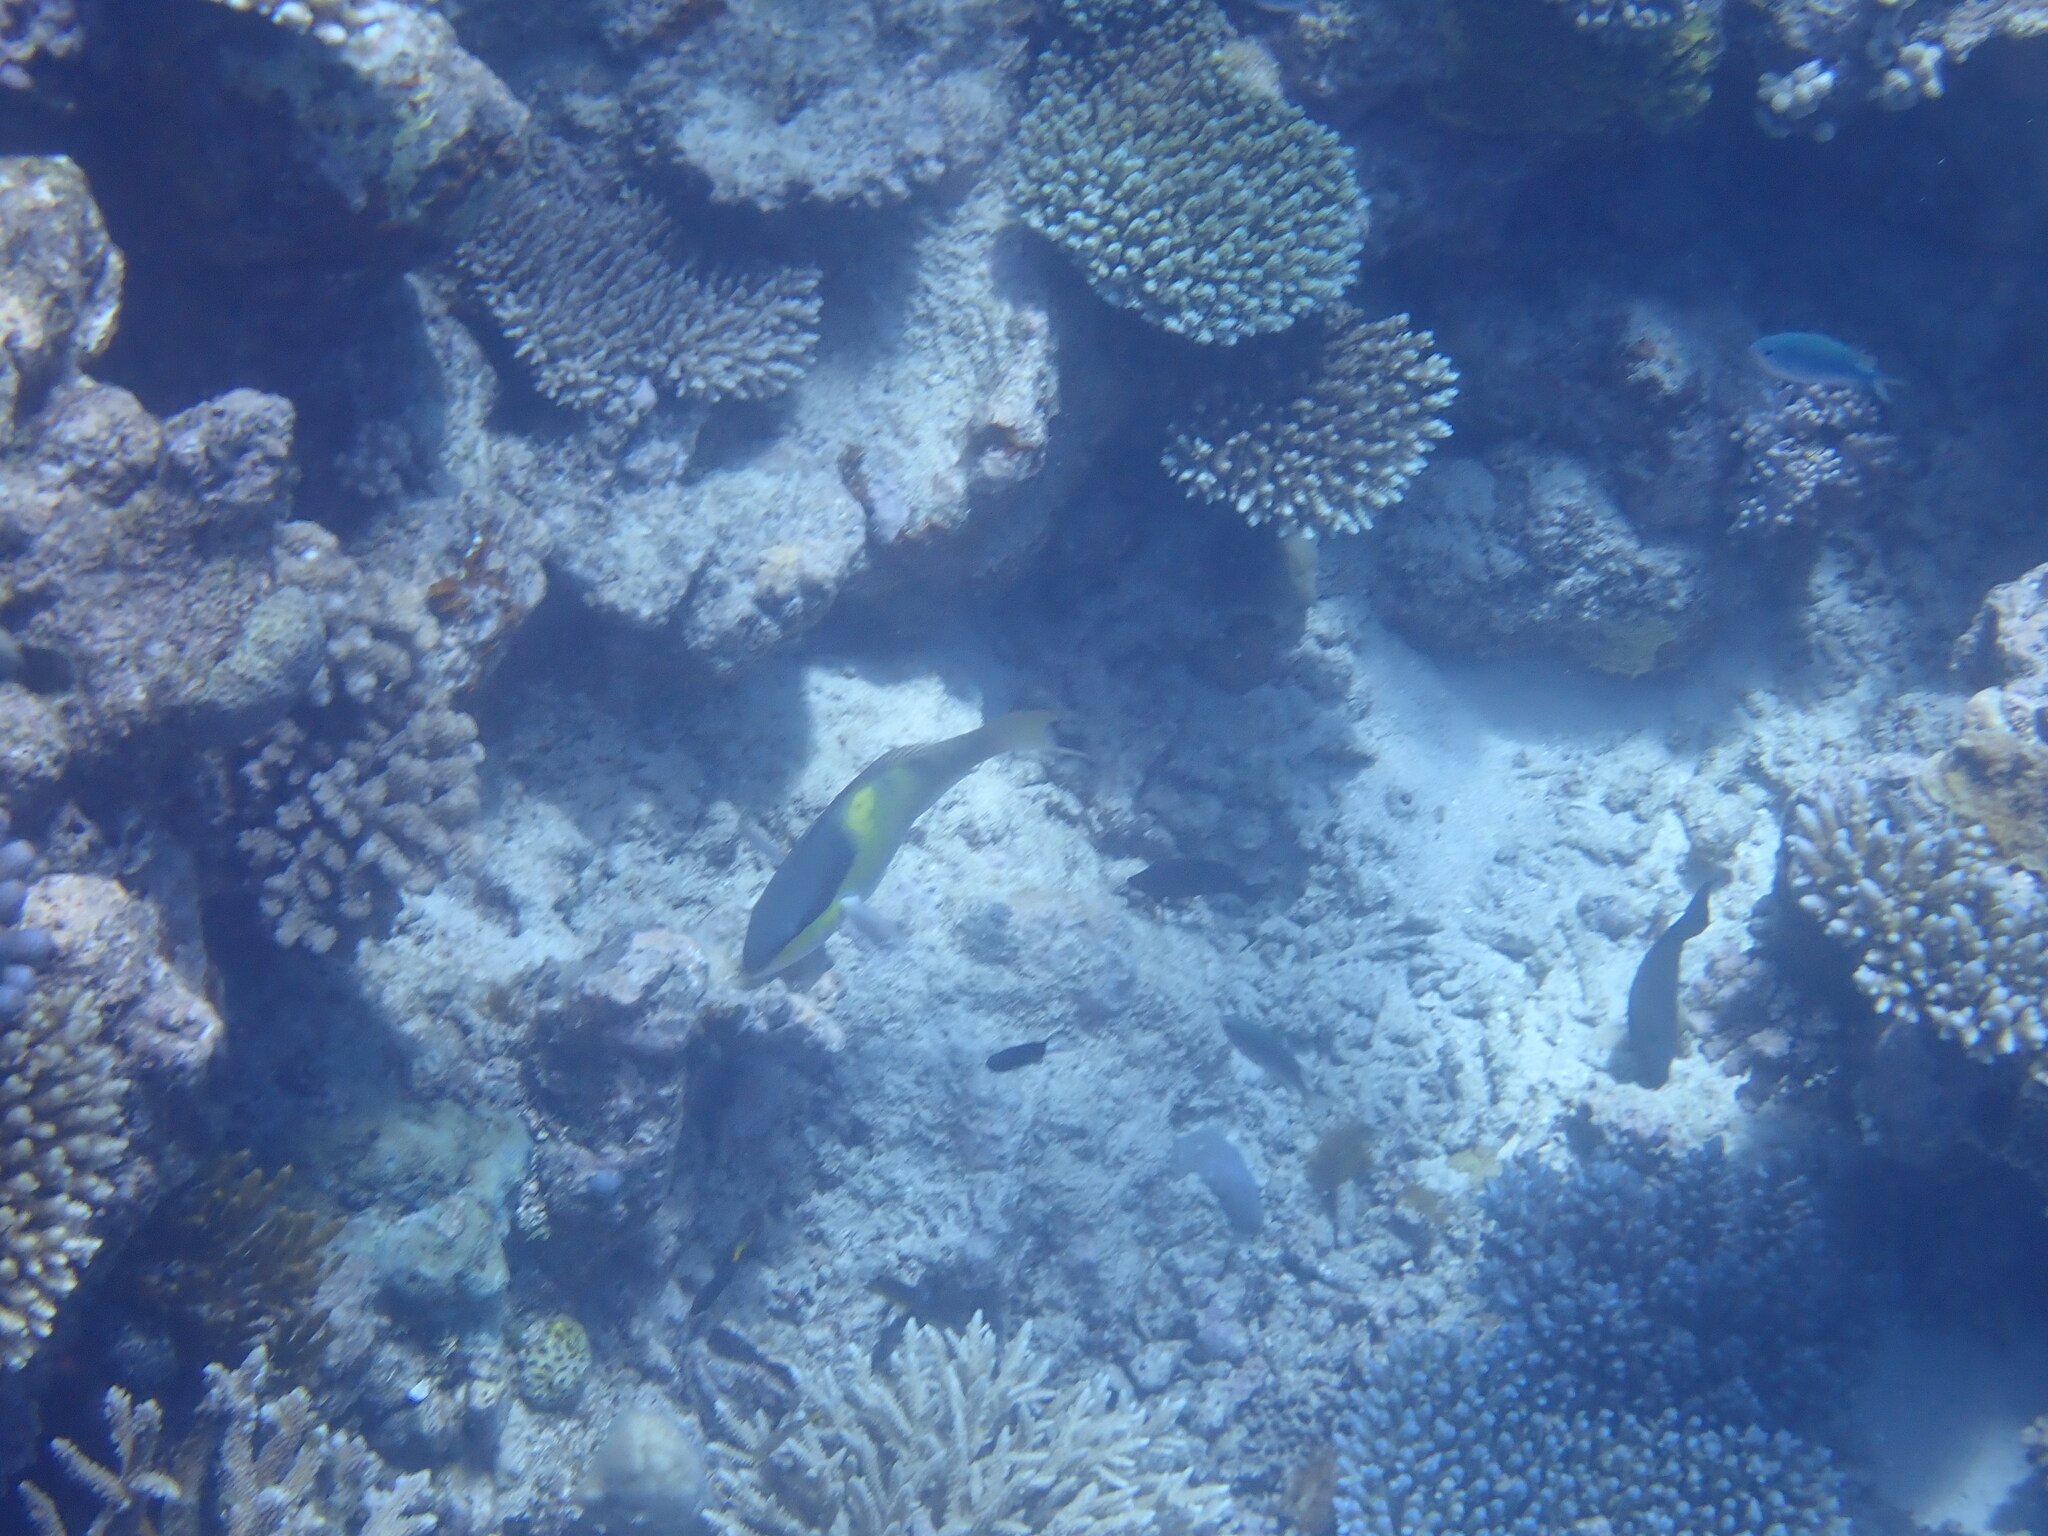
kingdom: Animalia
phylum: Chordata
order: Perciformes
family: Scaridae
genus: Scarus
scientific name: Scarus oviceps
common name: Blue parrotfish
